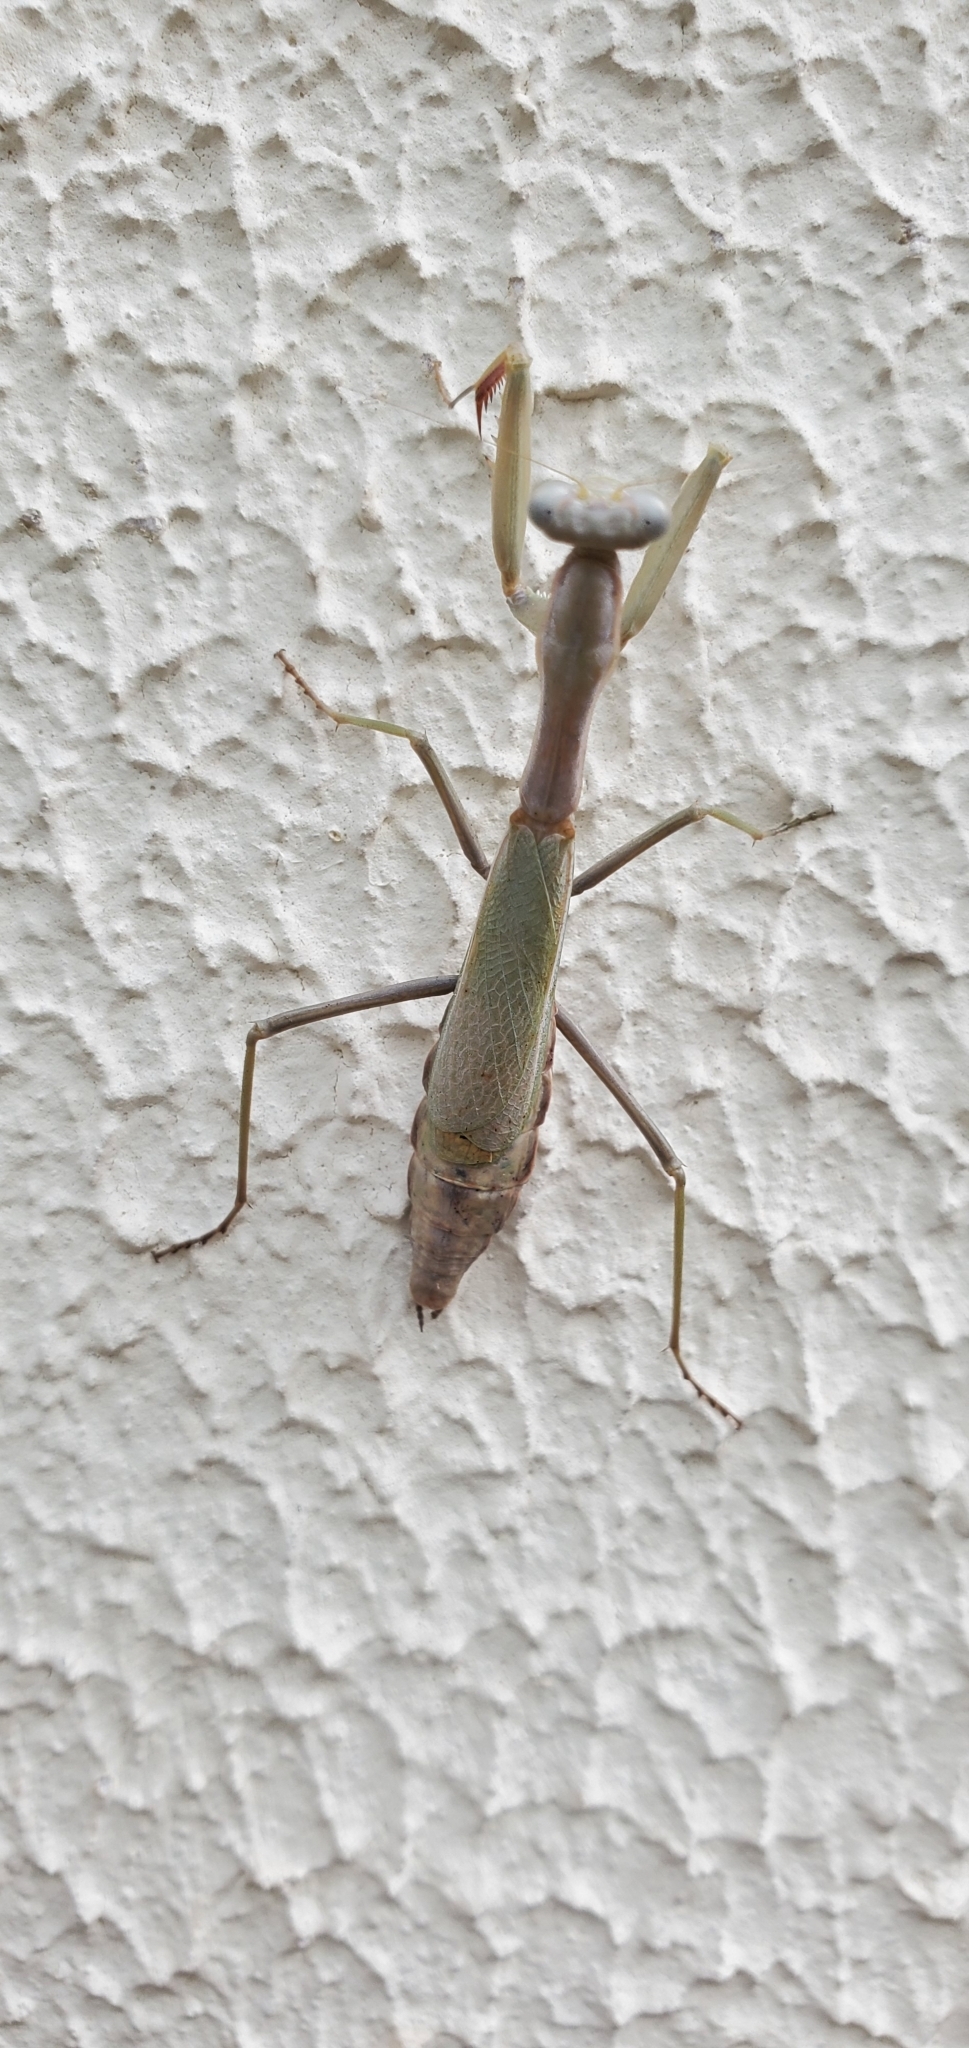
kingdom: Animalia
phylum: Arthropoda
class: Insecta
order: Mantodea
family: Eremiaphilidae
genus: Iris
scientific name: Iris oratoria
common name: Mediterranean mantis
